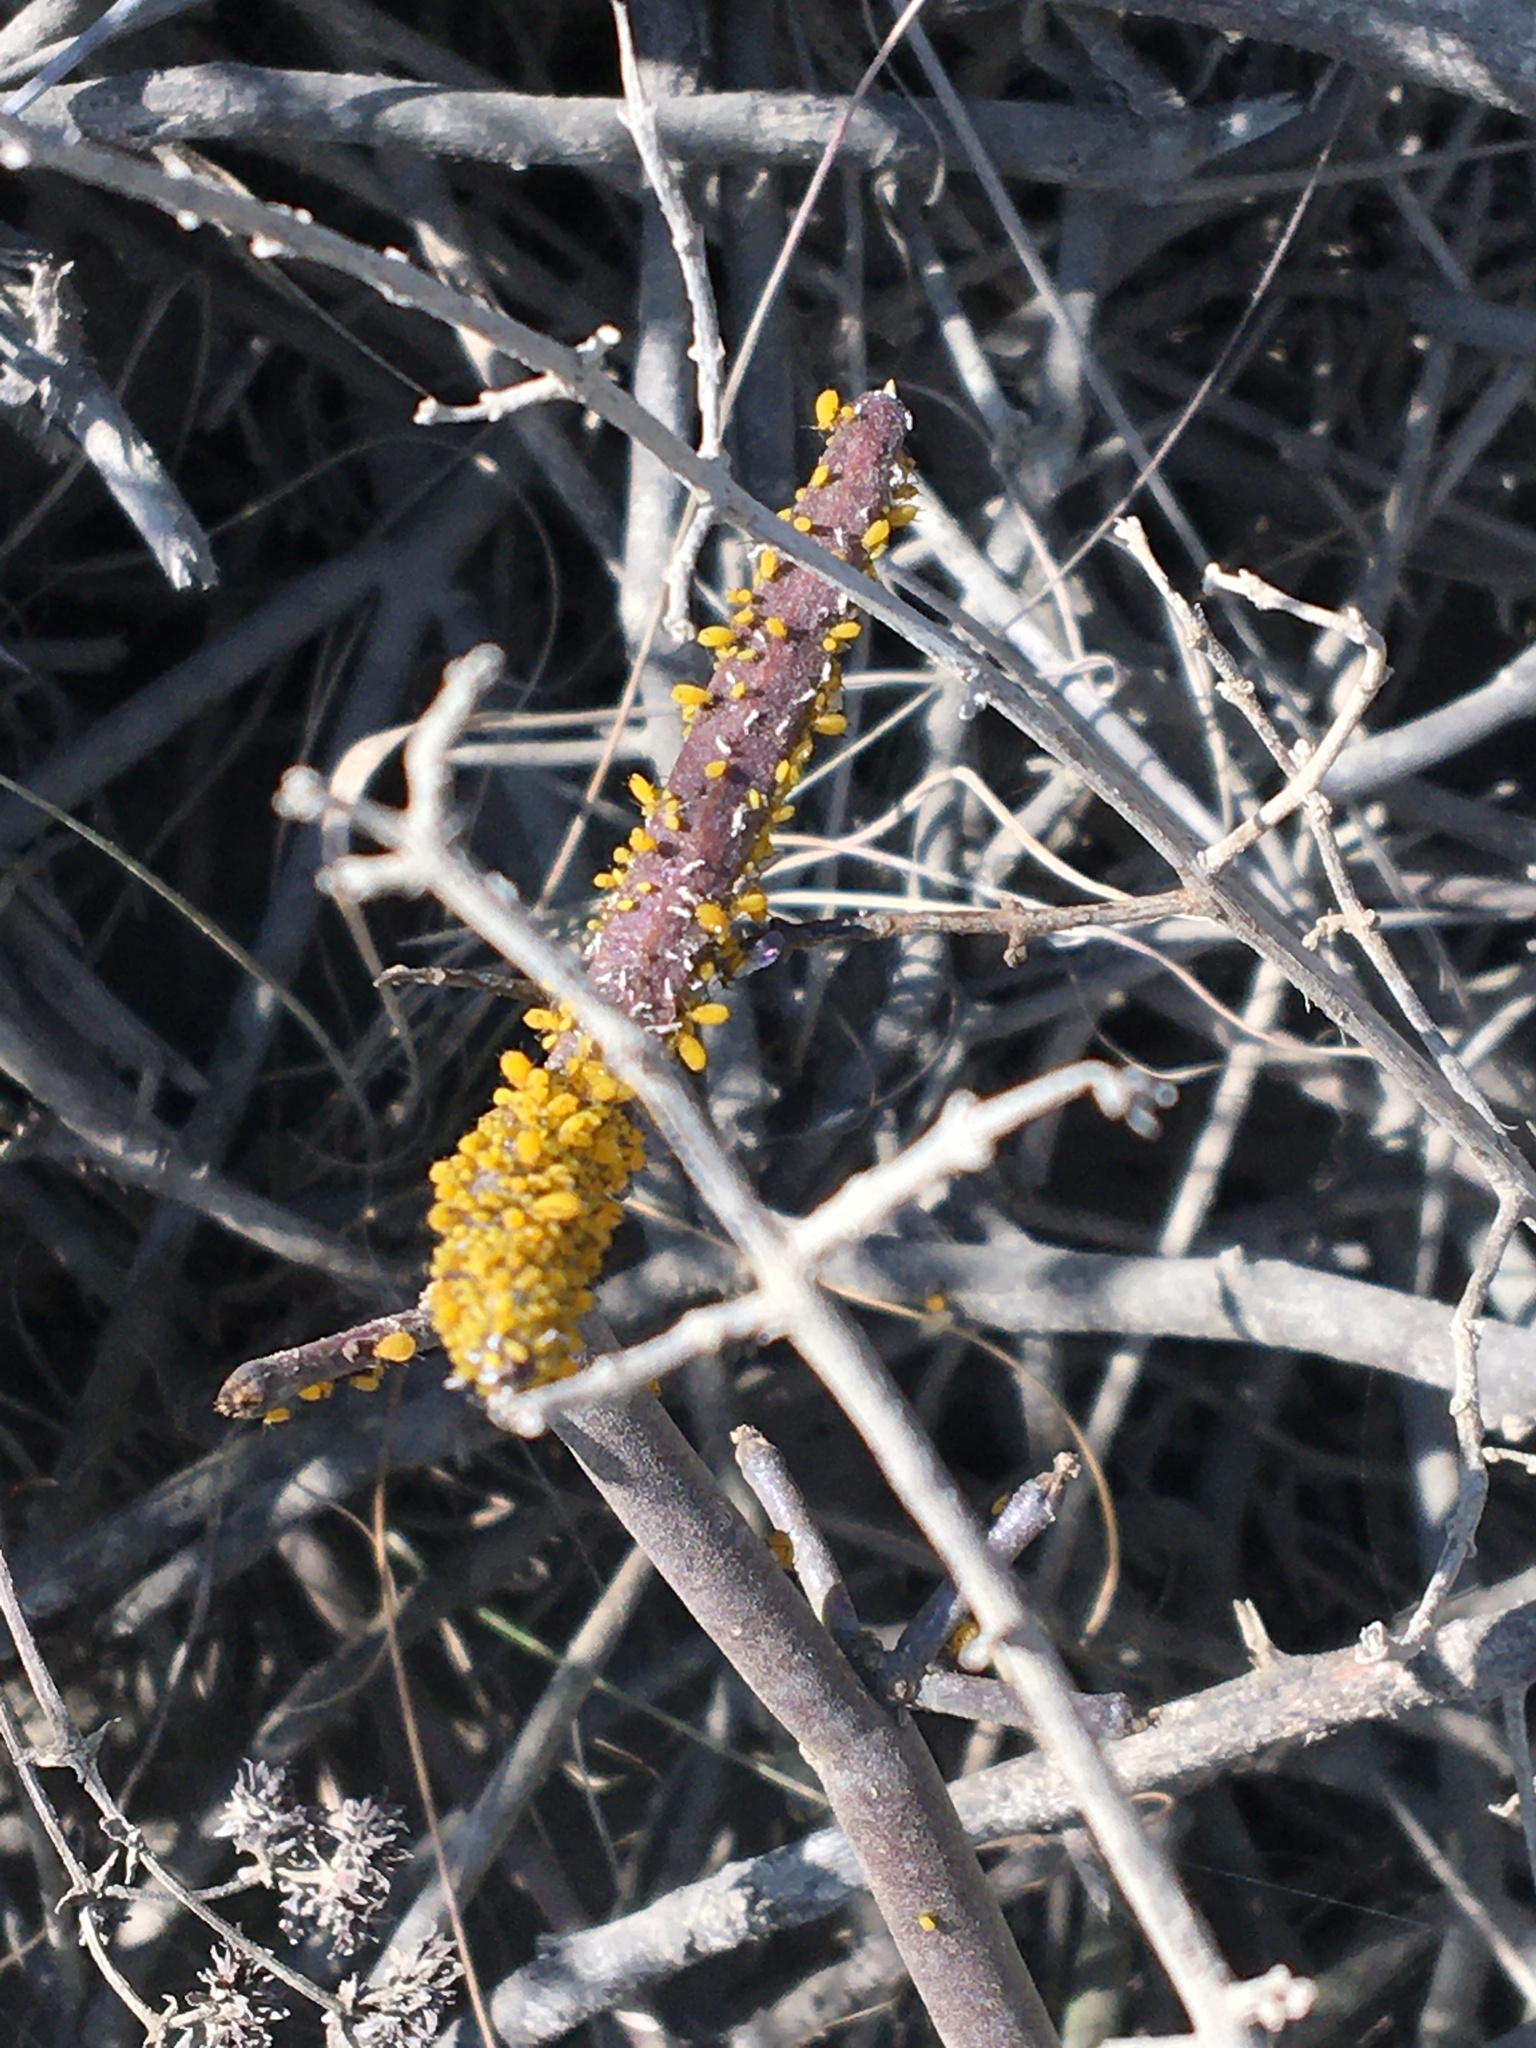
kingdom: Animalia
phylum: Arthropoda
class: Insecta
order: Hemiptera
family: Aphididae
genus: Aphis
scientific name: Aphis nerii
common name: Oleander aphid
